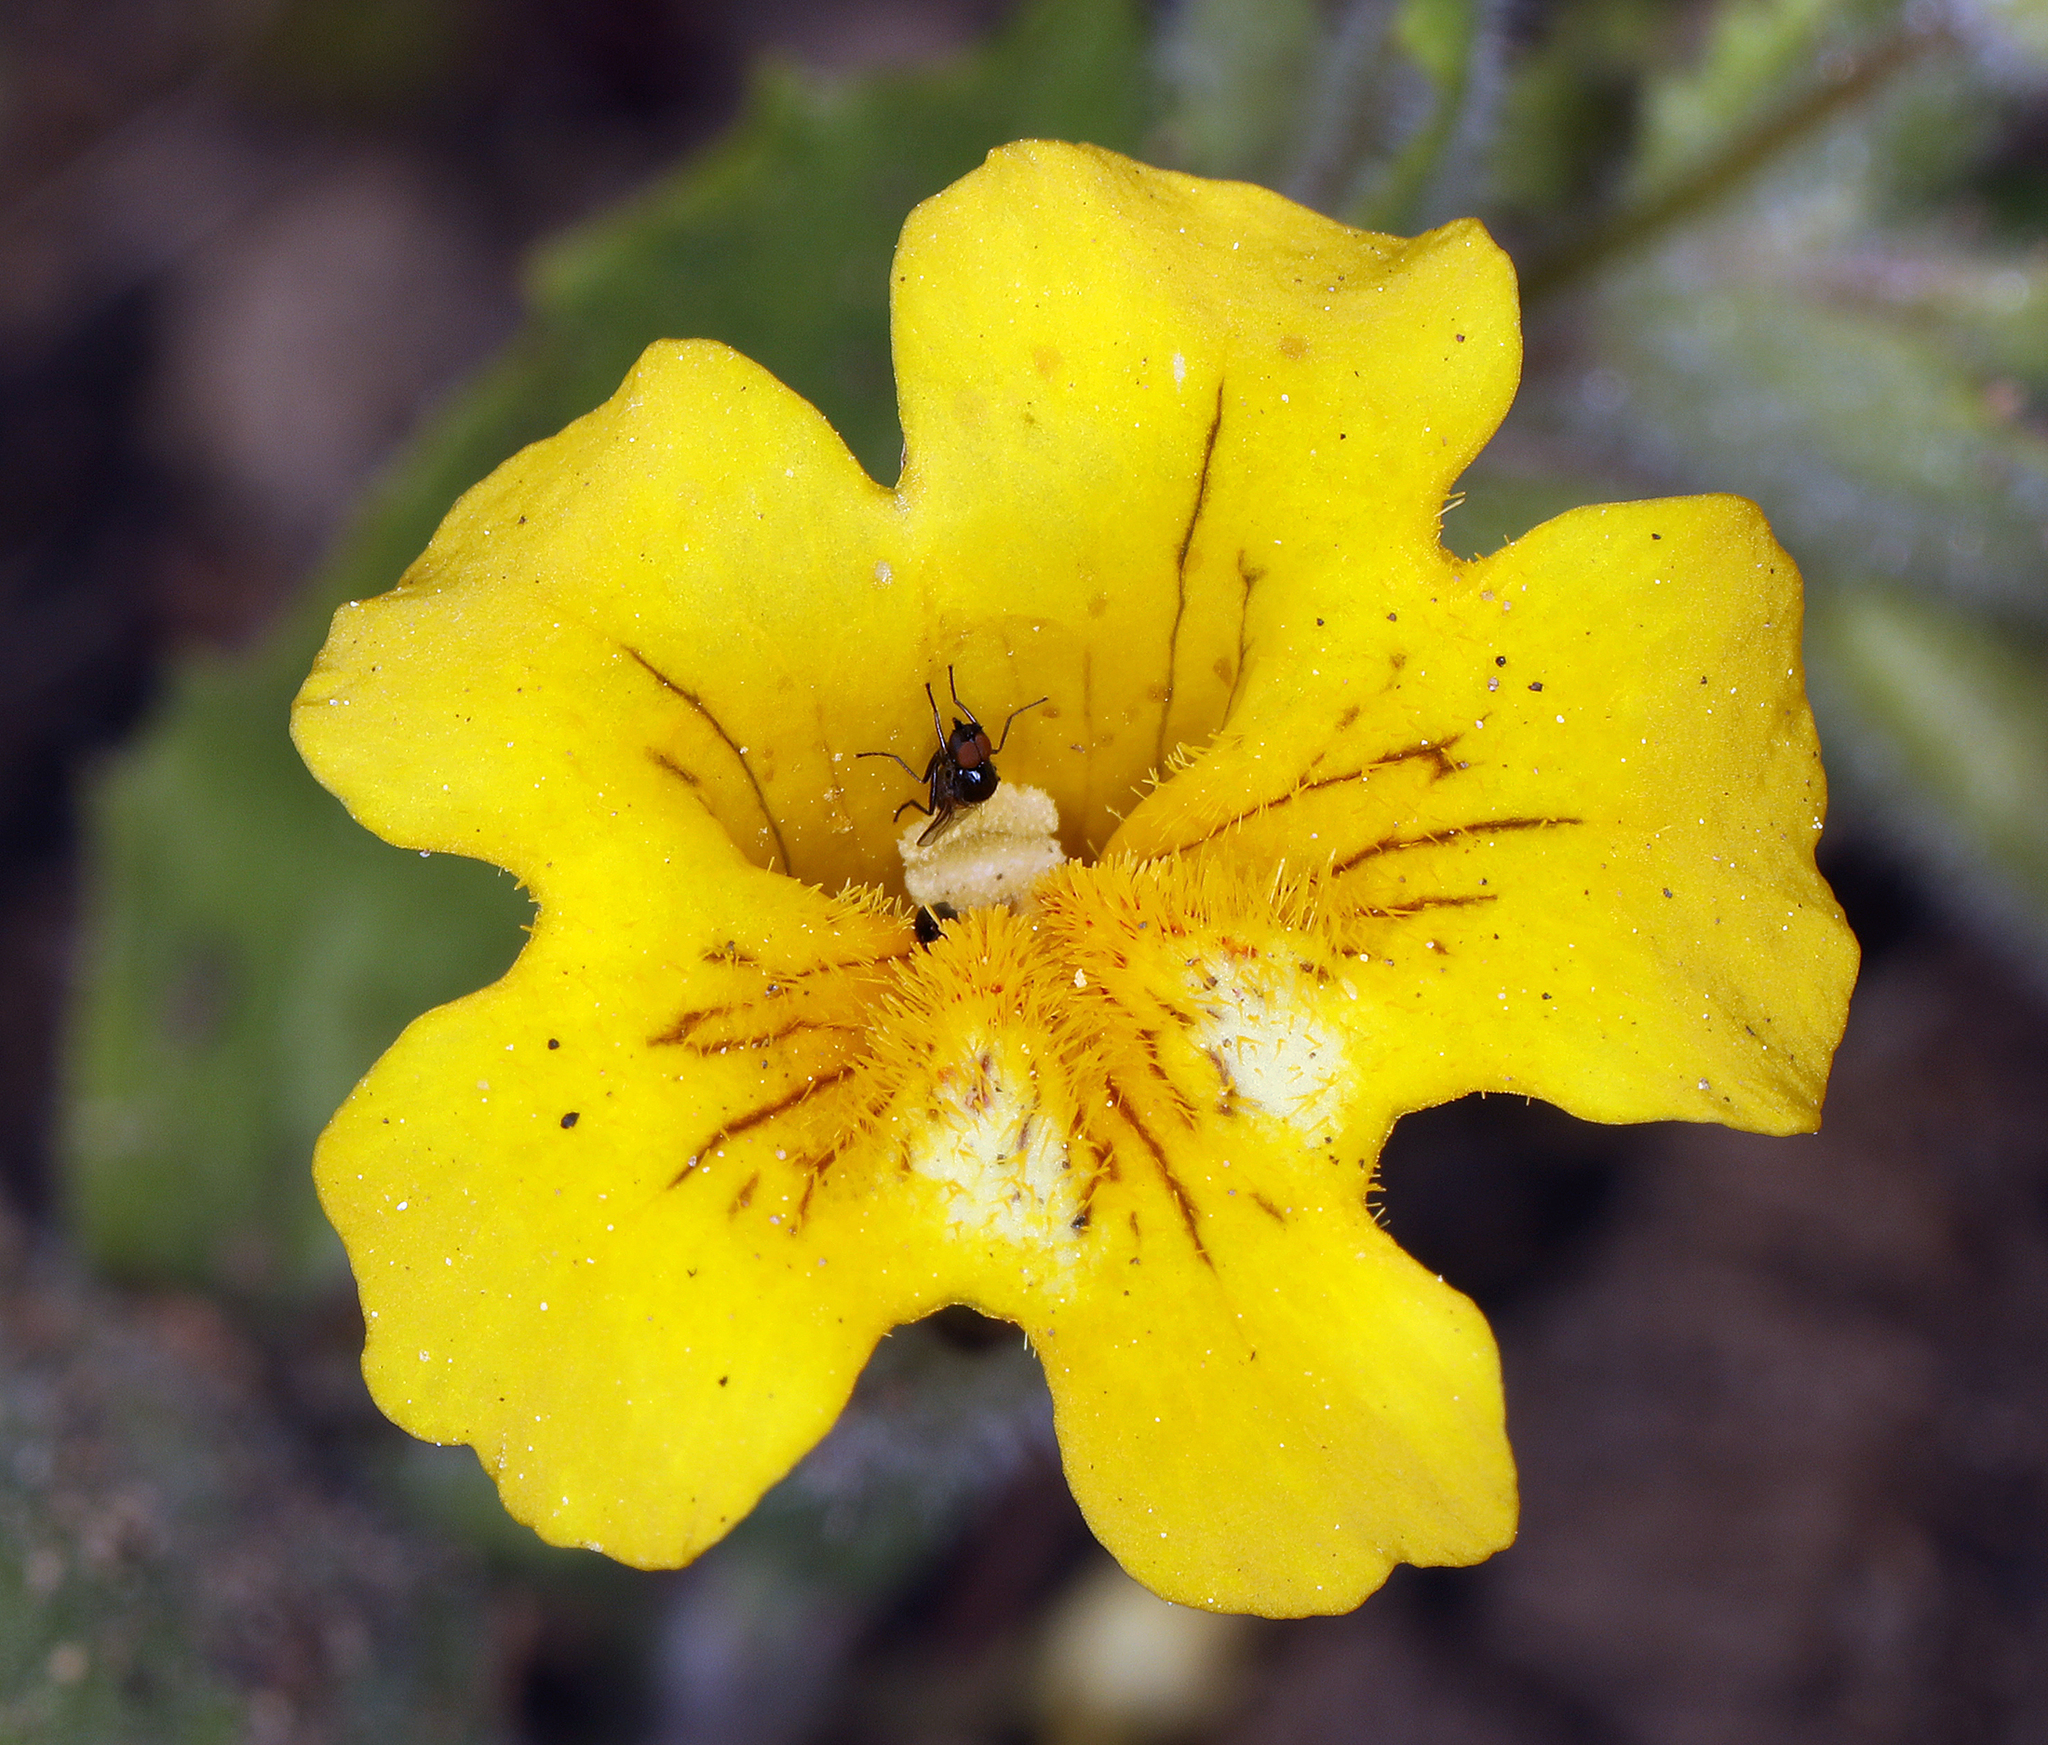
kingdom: Plantae
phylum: Tracheophyta
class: Magnoliopsida
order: Lamiales
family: Phrymaceae
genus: Erythranthe
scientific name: Erythranthe moschata
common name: Muskflower
